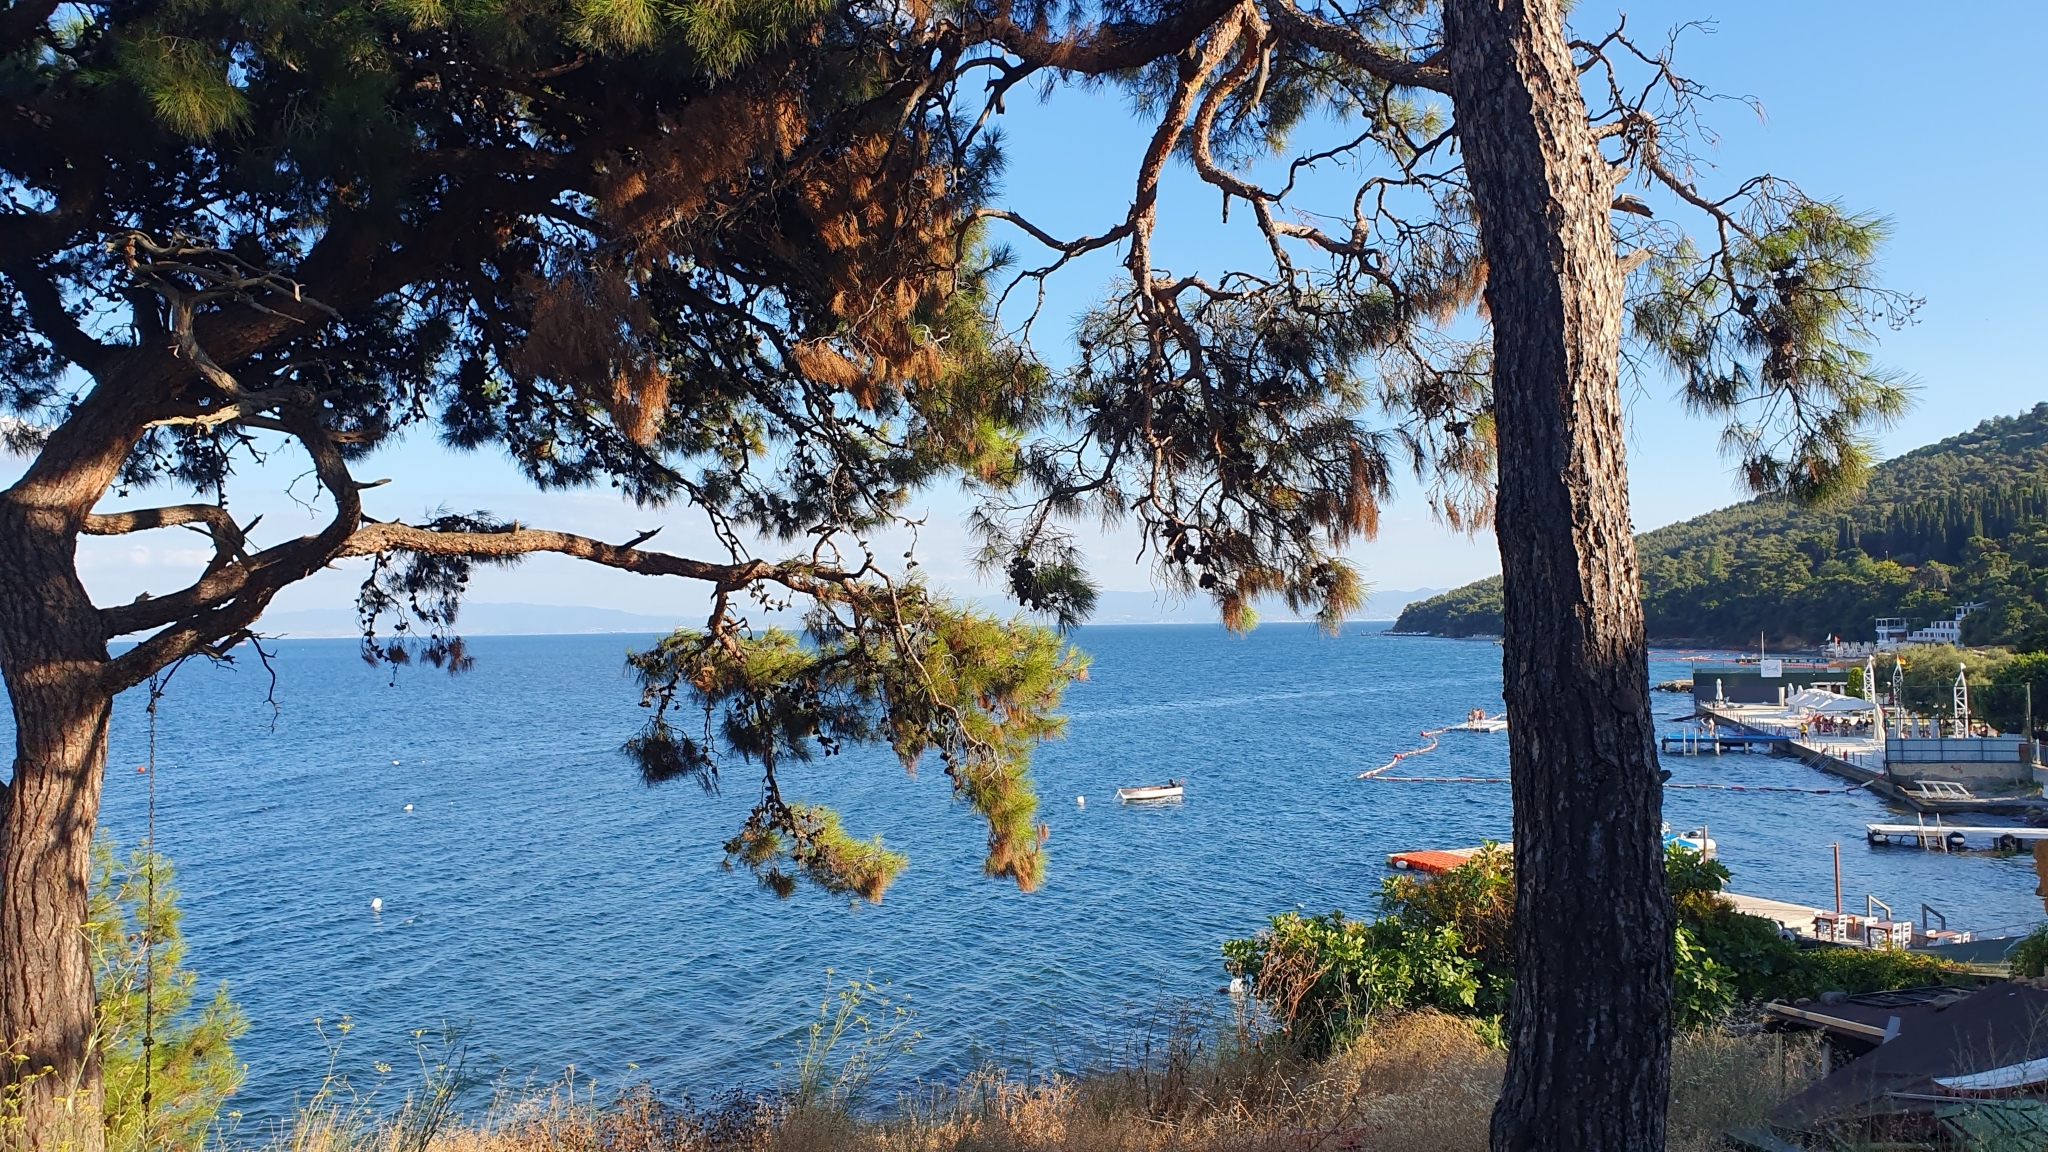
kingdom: Plantae
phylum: Tracheophyta
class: Pinopsida
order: Pinales
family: Pinaceae
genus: Pinus
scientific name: Pinus brutia
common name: Turkish pine
